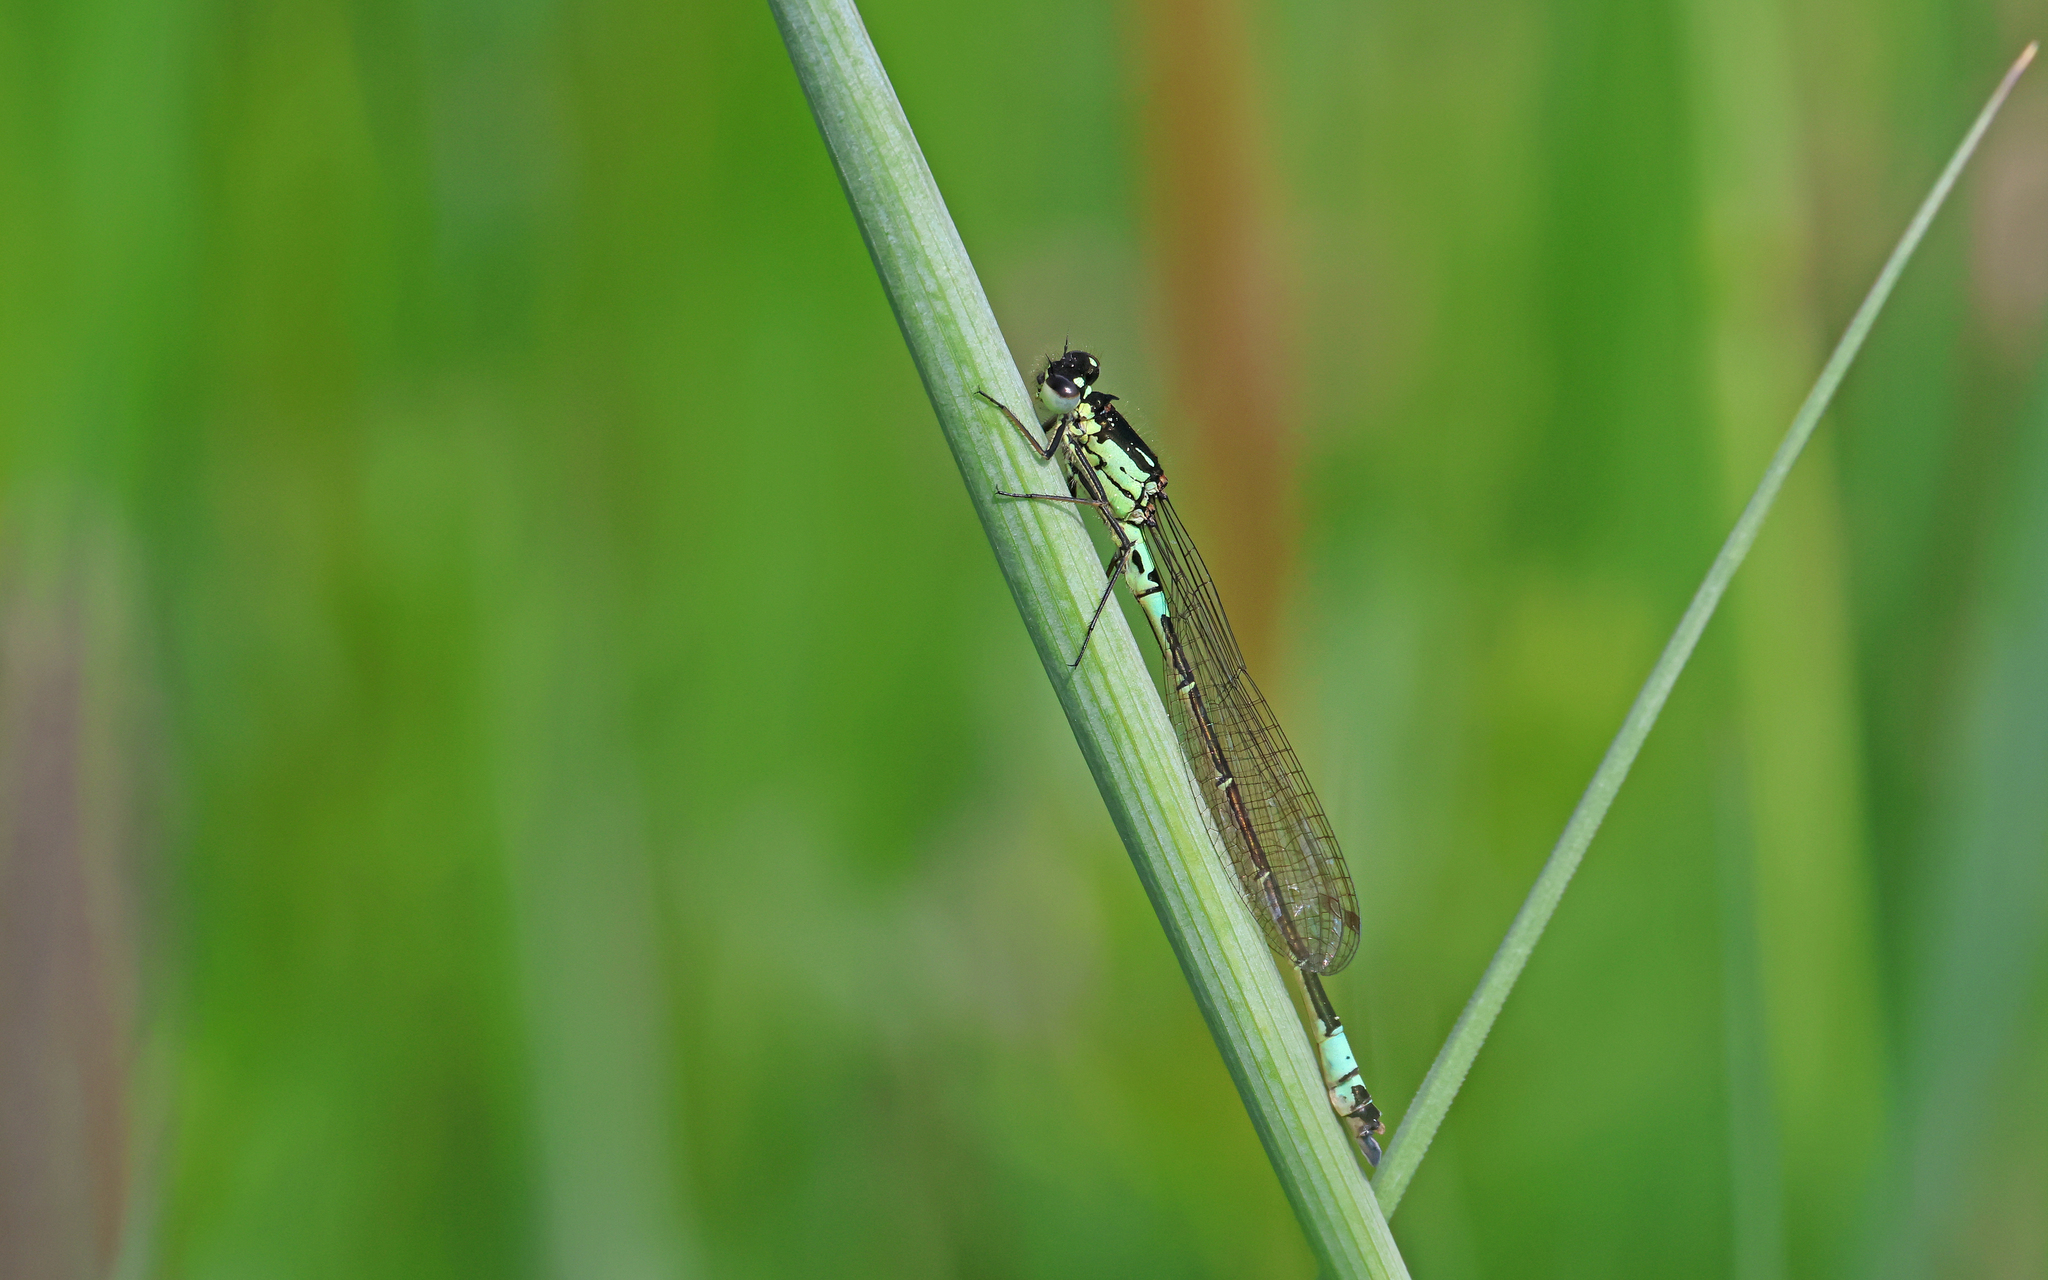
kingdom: Animalia
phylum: Arthropoda
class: Insecta
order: Odonata
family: Coenagrionidae
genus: Coenagrion
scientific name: Coenagrion armatum
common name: Dark bluet
